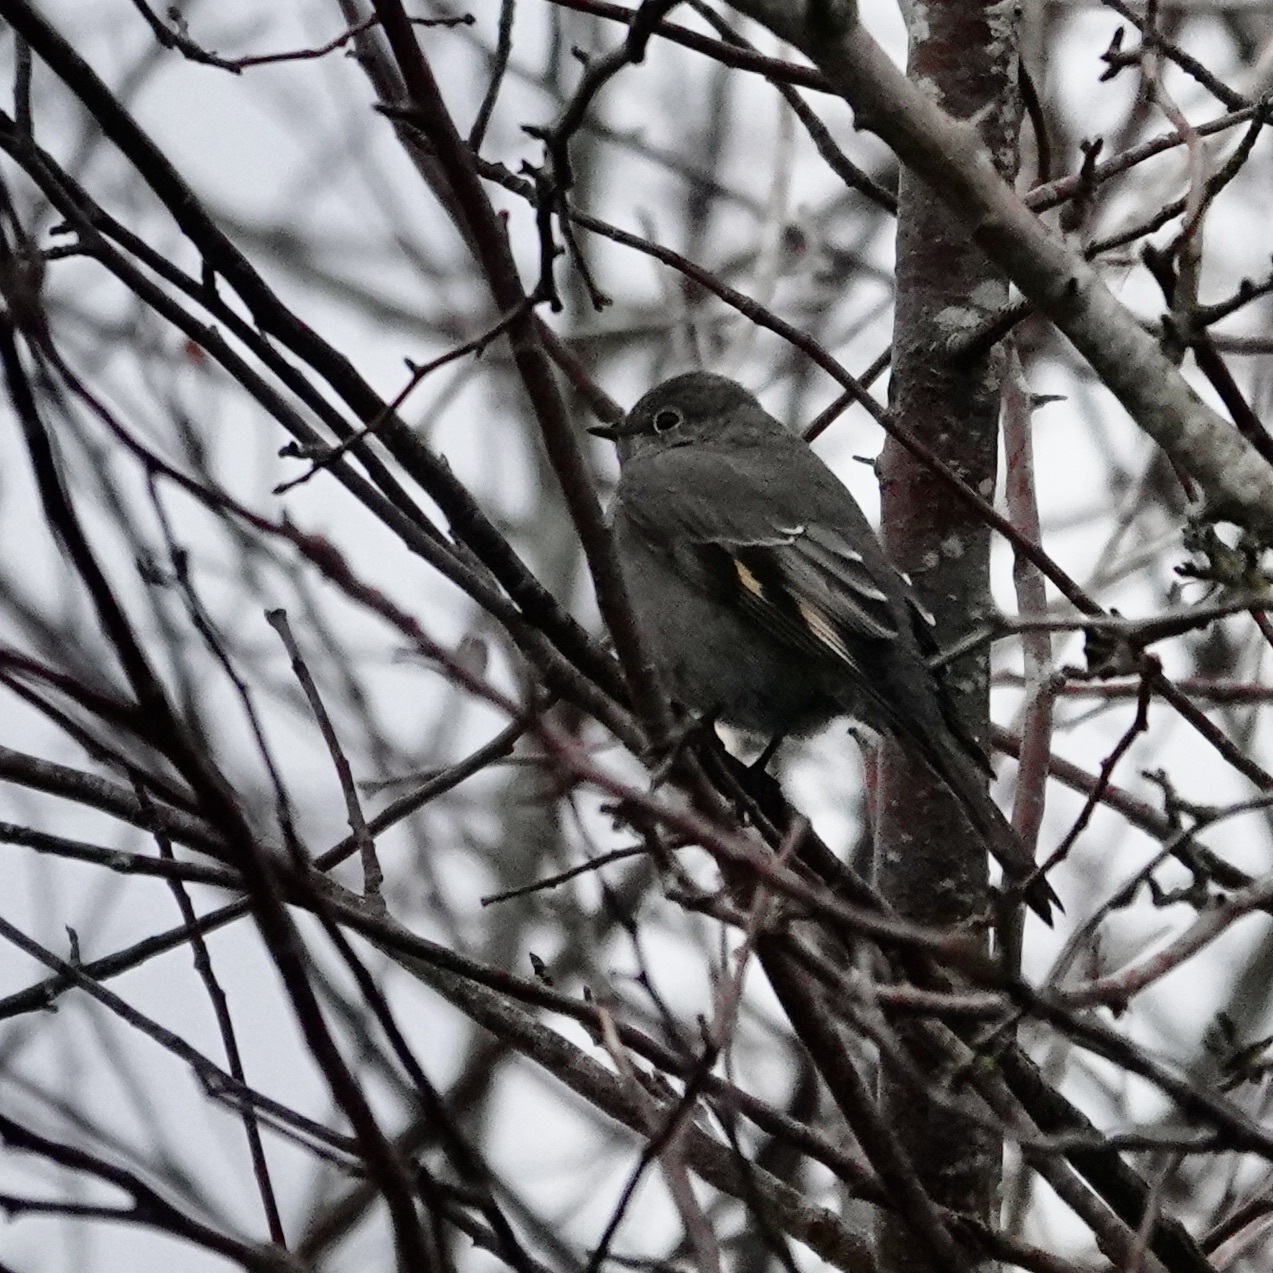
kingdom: Animalia
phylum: Chordata
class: Aves
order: Passeriformes
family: Turdidae
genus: Myadestes
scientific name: Myadestes townsendi
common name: Townsend's solitaire
